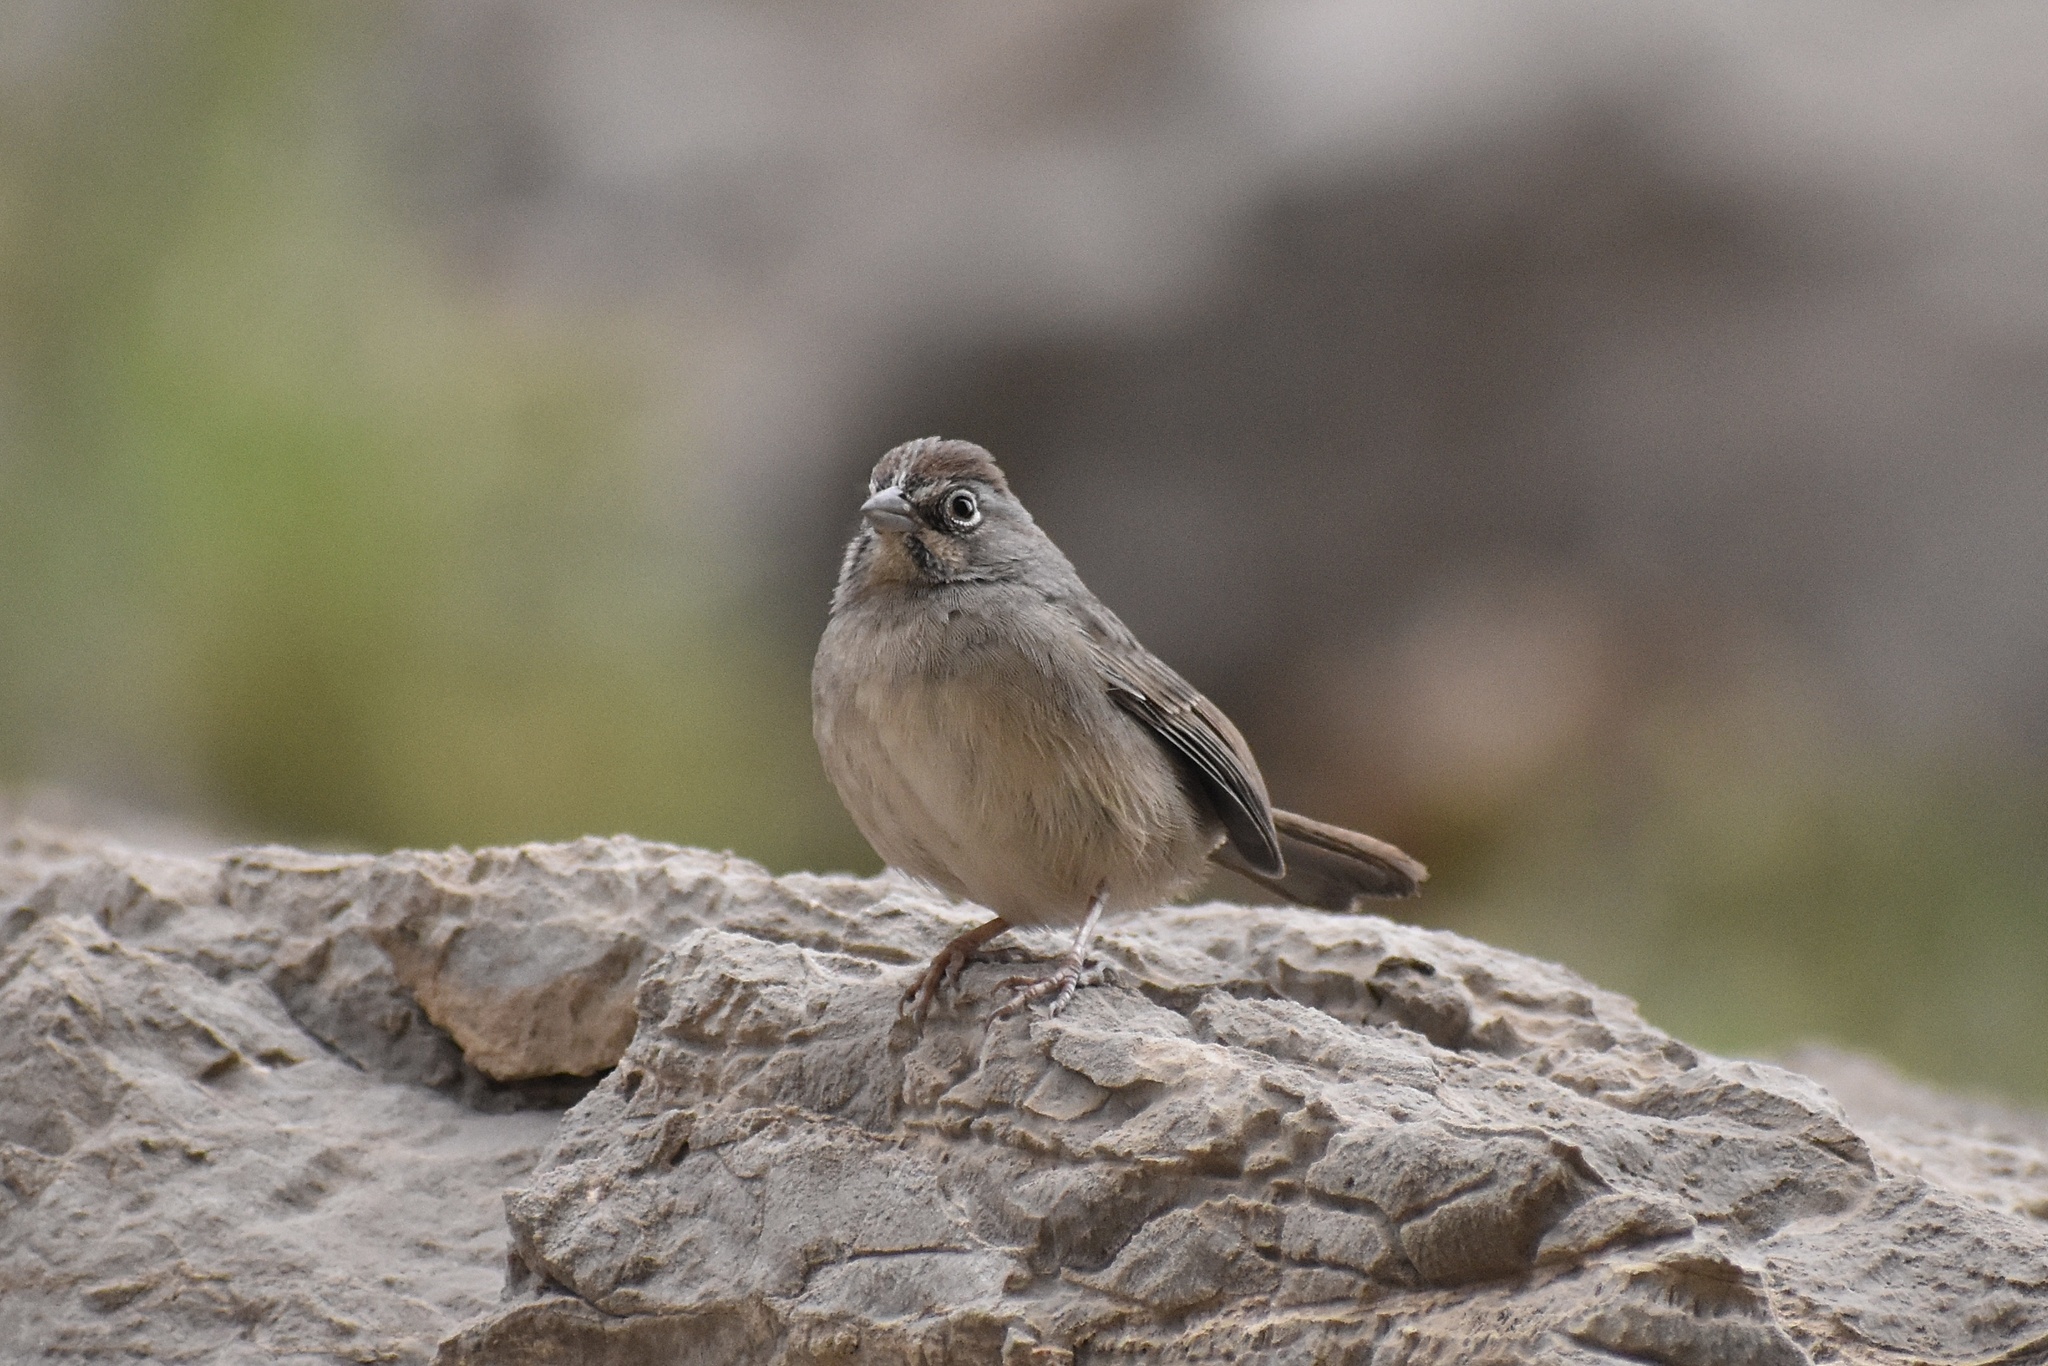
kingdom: Animalia
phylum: Chordata
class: Aves
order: Passeriformes
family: Passerellidae
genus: Aimophila
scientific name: Aimophila ruficeps
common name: Rufous-crowned sparrow
